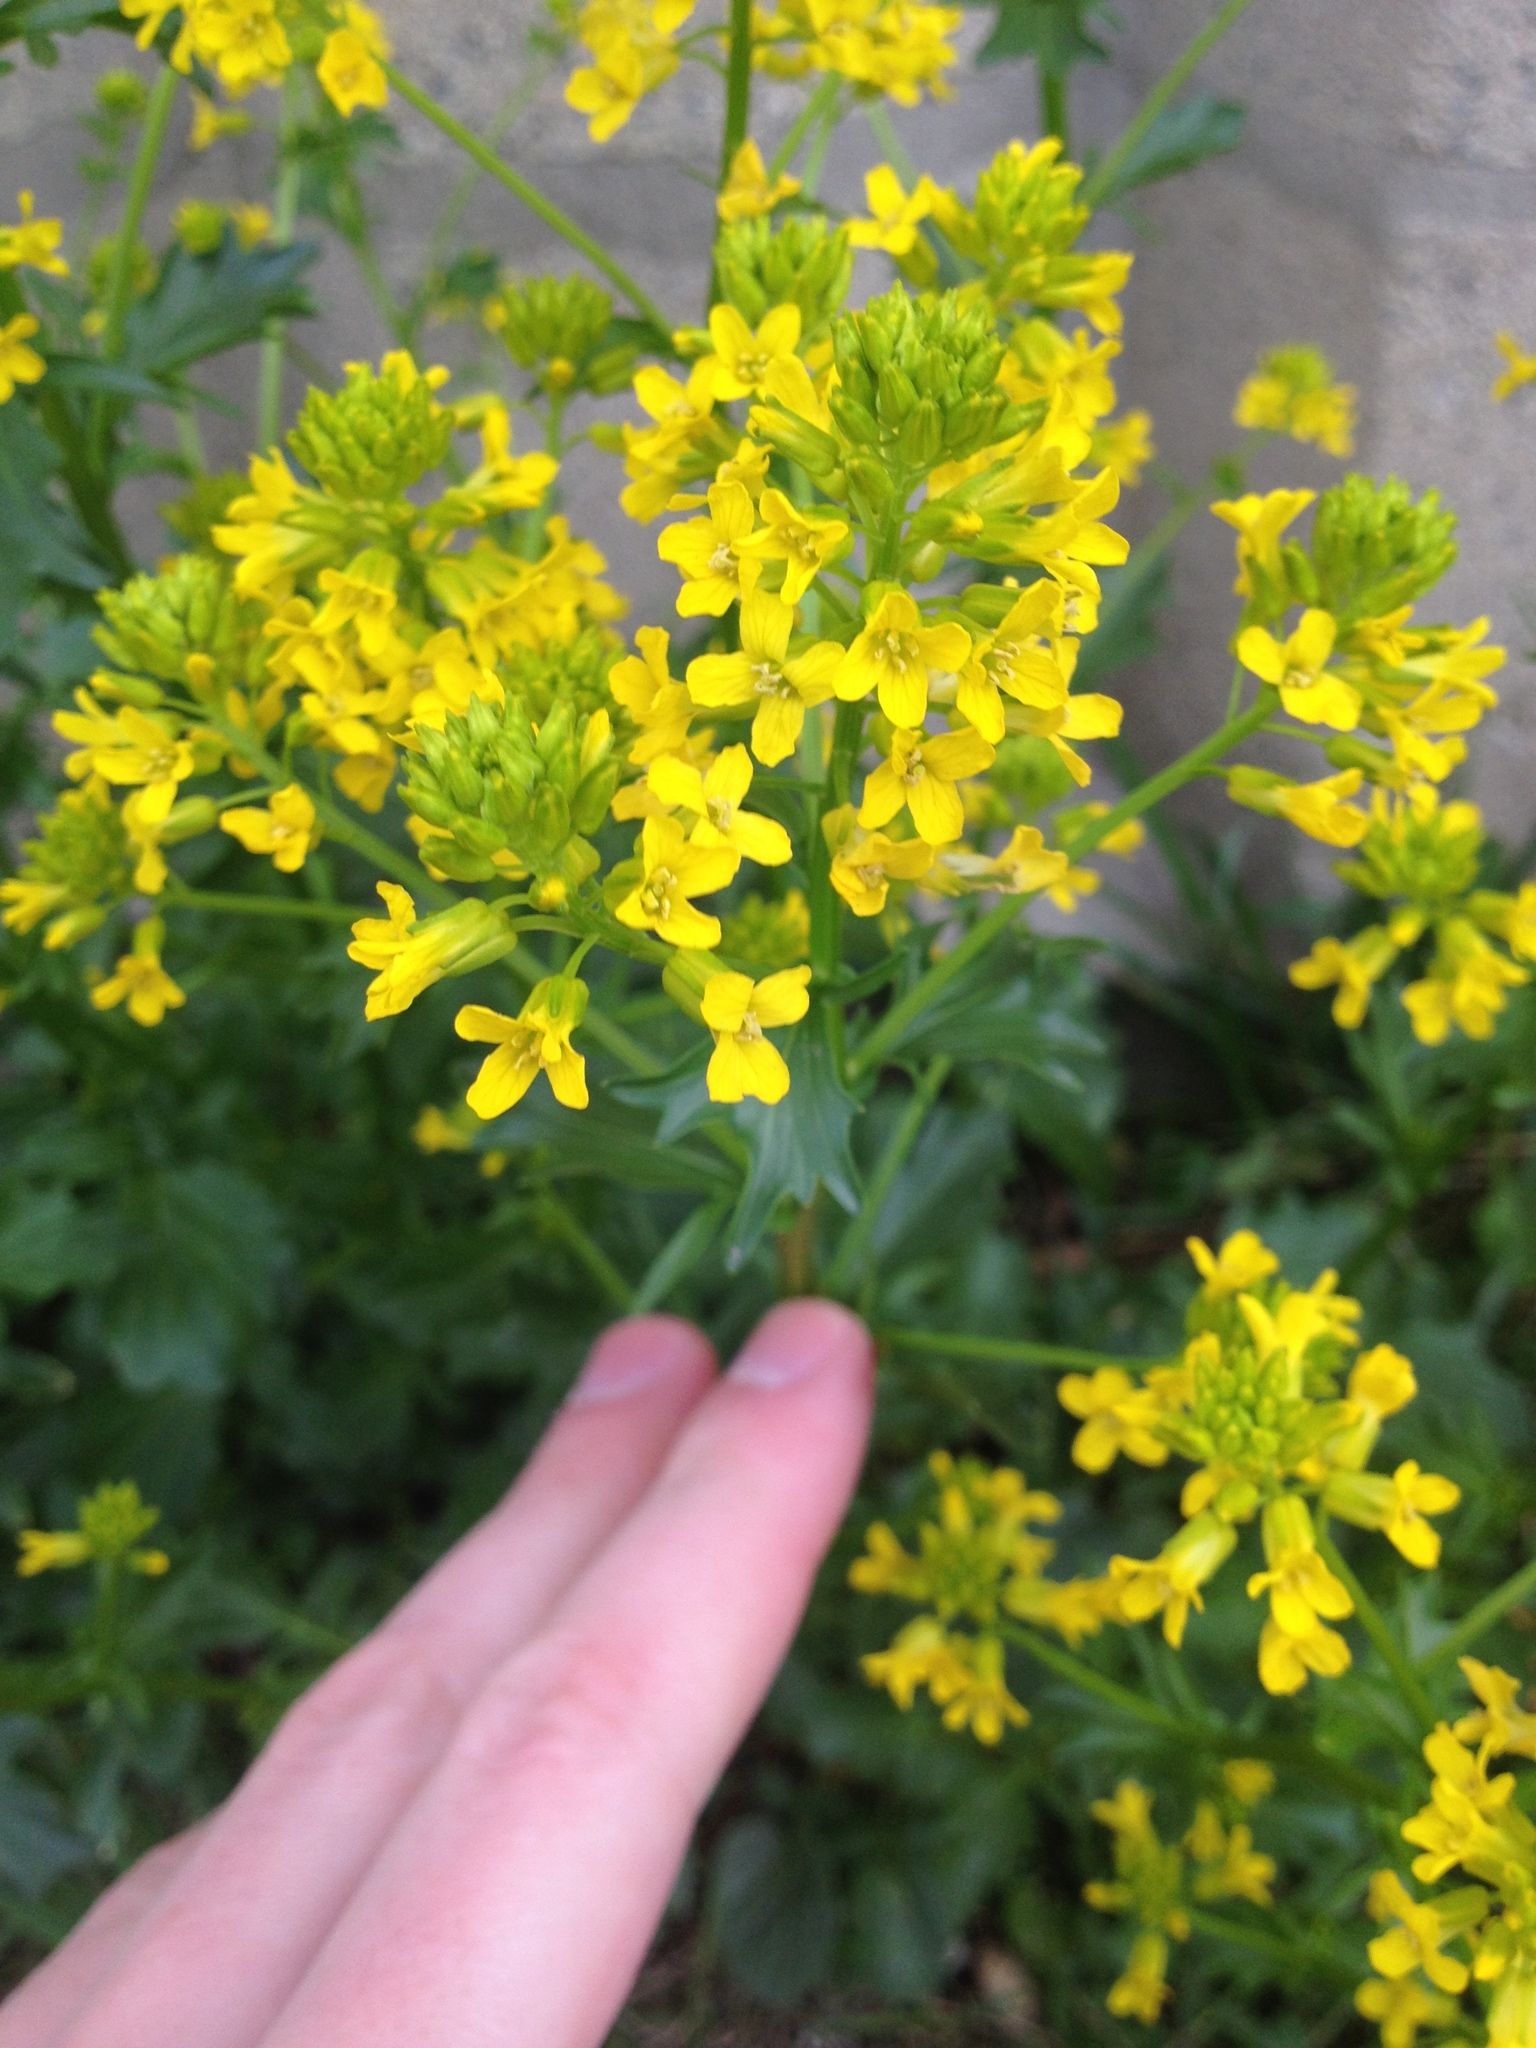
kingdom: Plantae
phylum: Tracheophyta
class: Magnoliopsida
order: Brassicales
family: Brassicaceae
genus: Barbarea
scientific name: Barbarea vulgaris
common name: Cressy-greens
